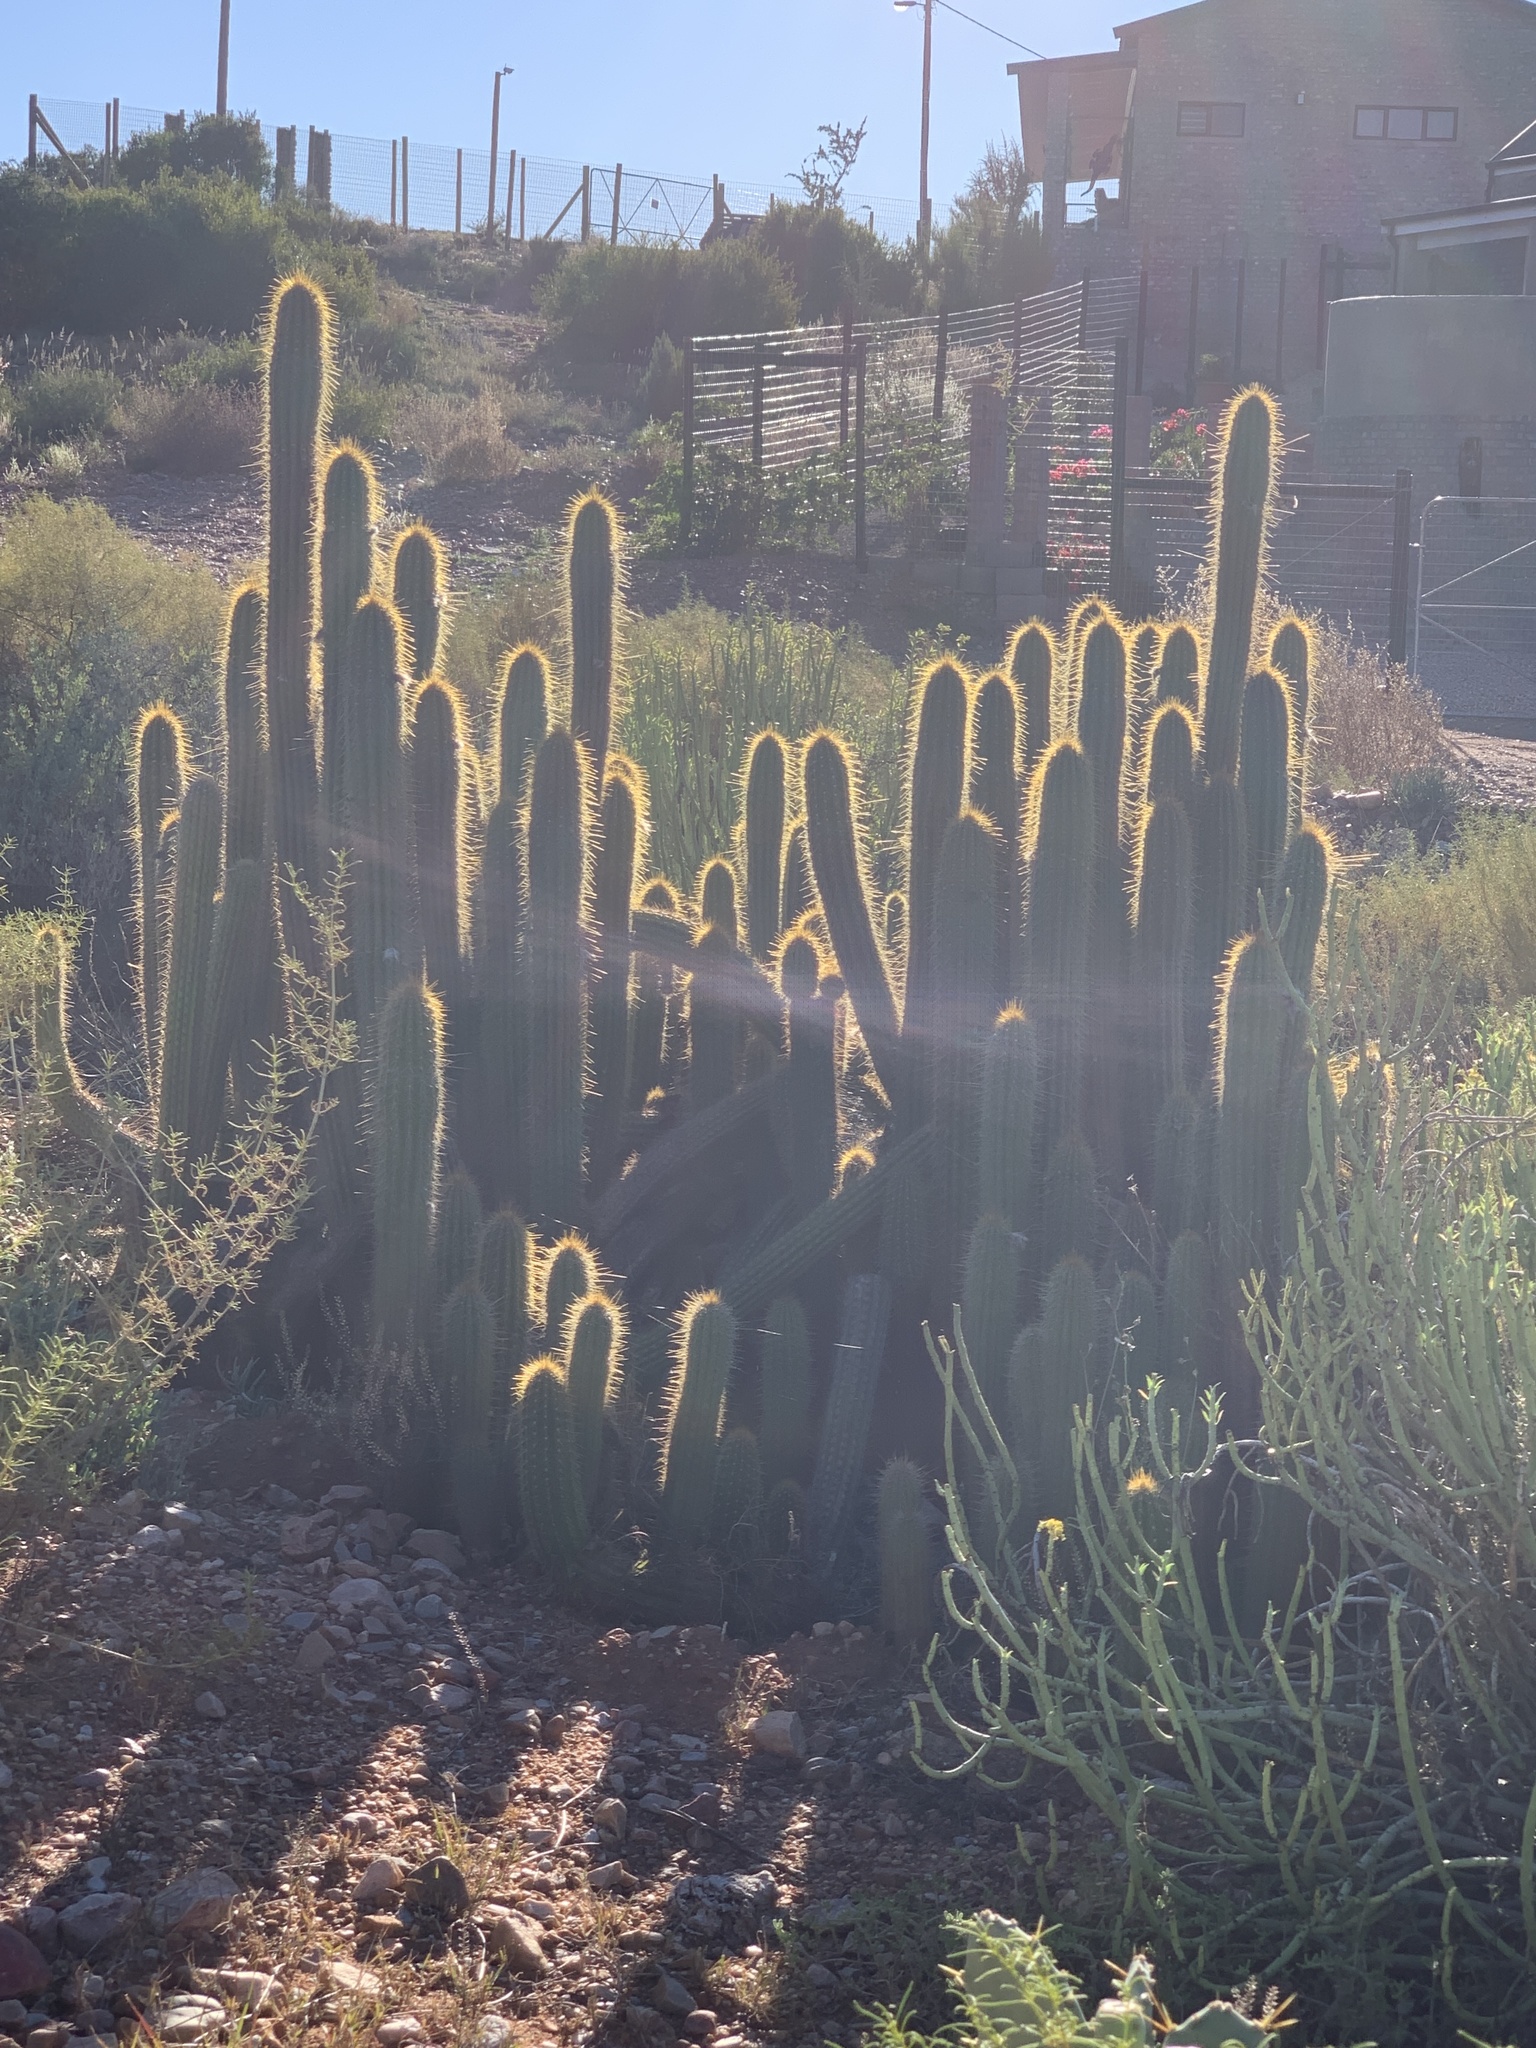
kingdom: Plantae
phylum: Tracheophyta
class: Magnoliopsida
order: Caryophyllales
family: Cactaceae
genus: Soehrensia
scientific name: Soehrensia spachiana
